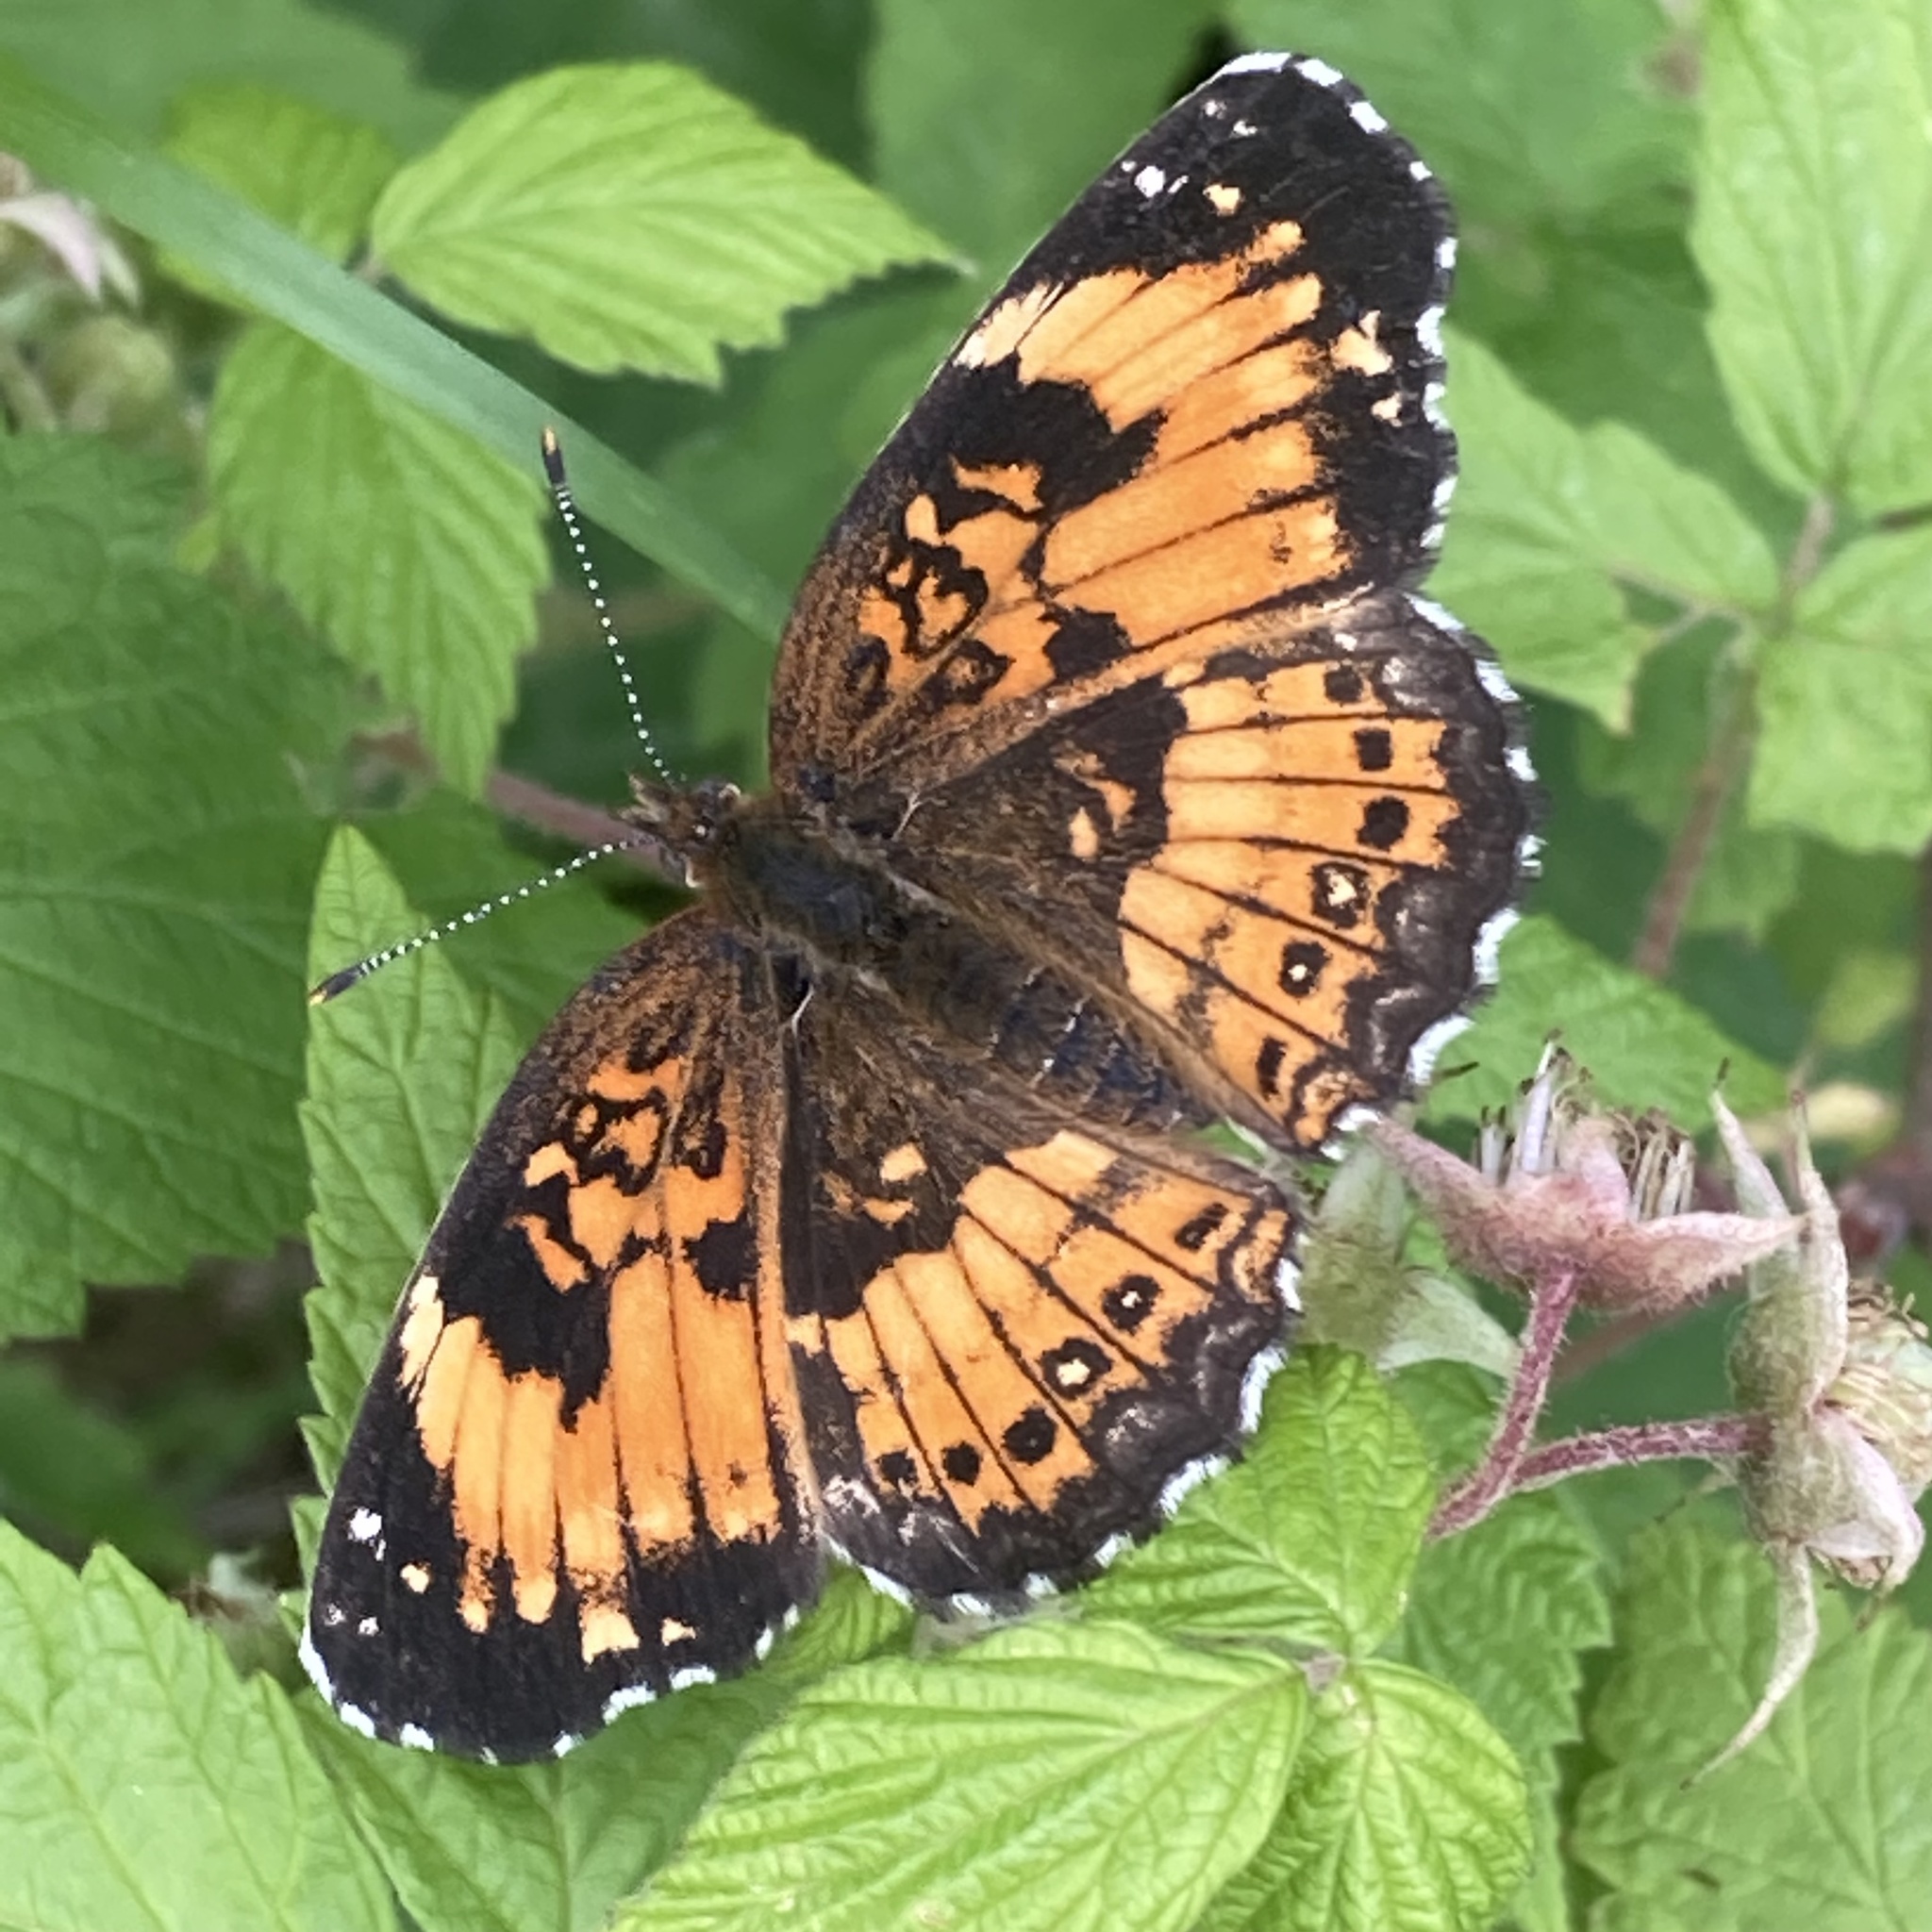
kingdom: Animalia
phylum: Arthropoda
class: Insecta
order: Lepidoptera
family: Nymphalidae
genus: Chlosyne
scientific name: Chlosyne nycteis
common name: Silvery checkerspot
